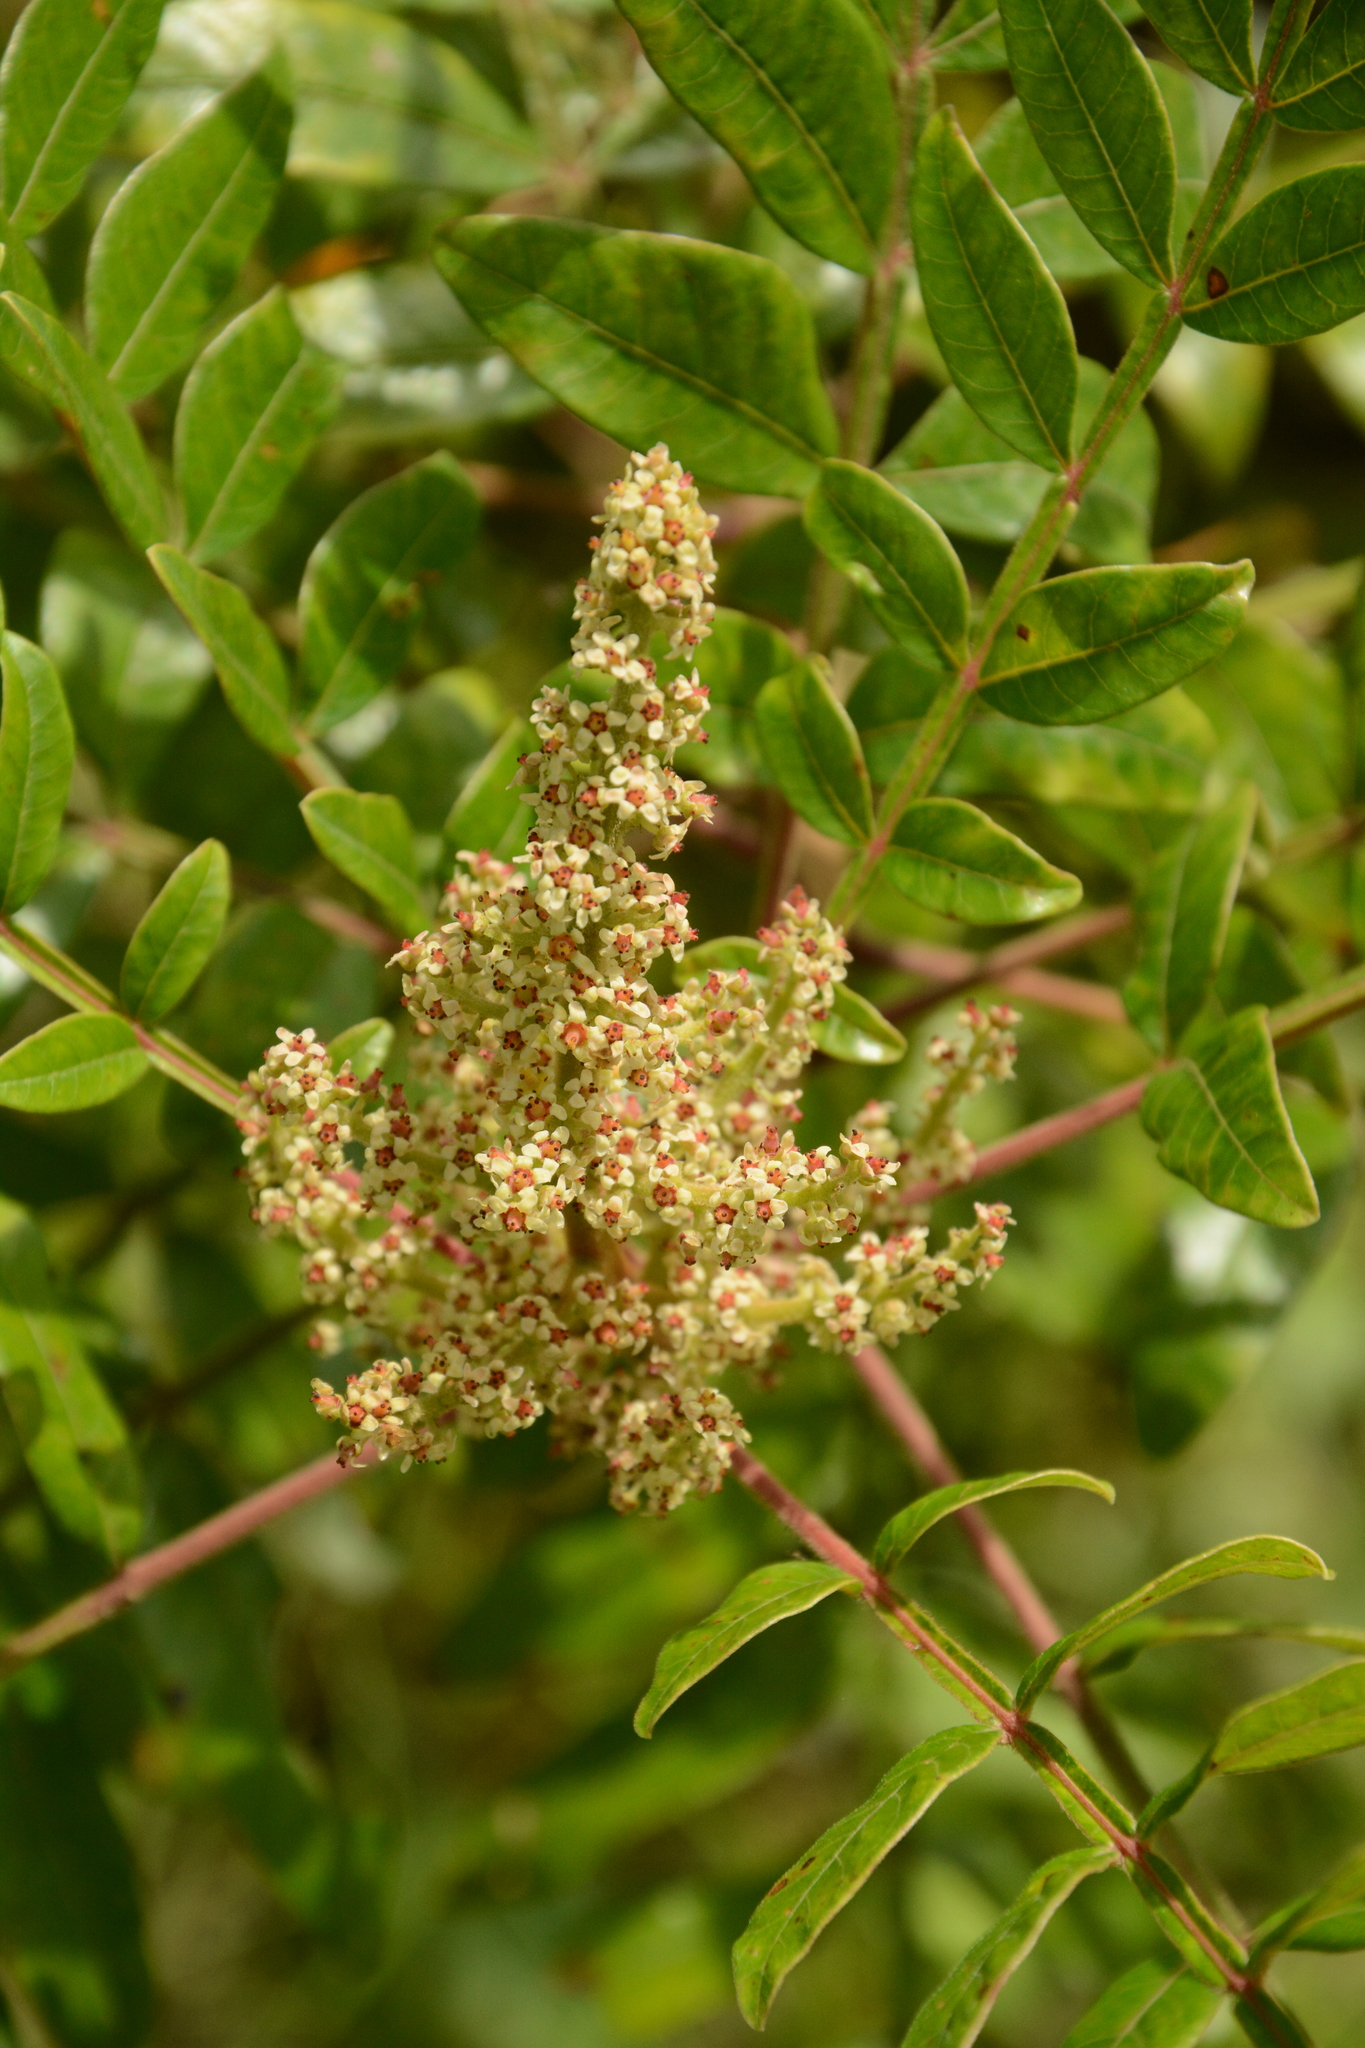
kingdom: Plantae
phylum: Tracheophyta
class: Magnoliopsida
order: Sapindales
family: Anacardiaceae
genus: Rhus
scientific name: Rhus copallina
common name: Shining sumac
